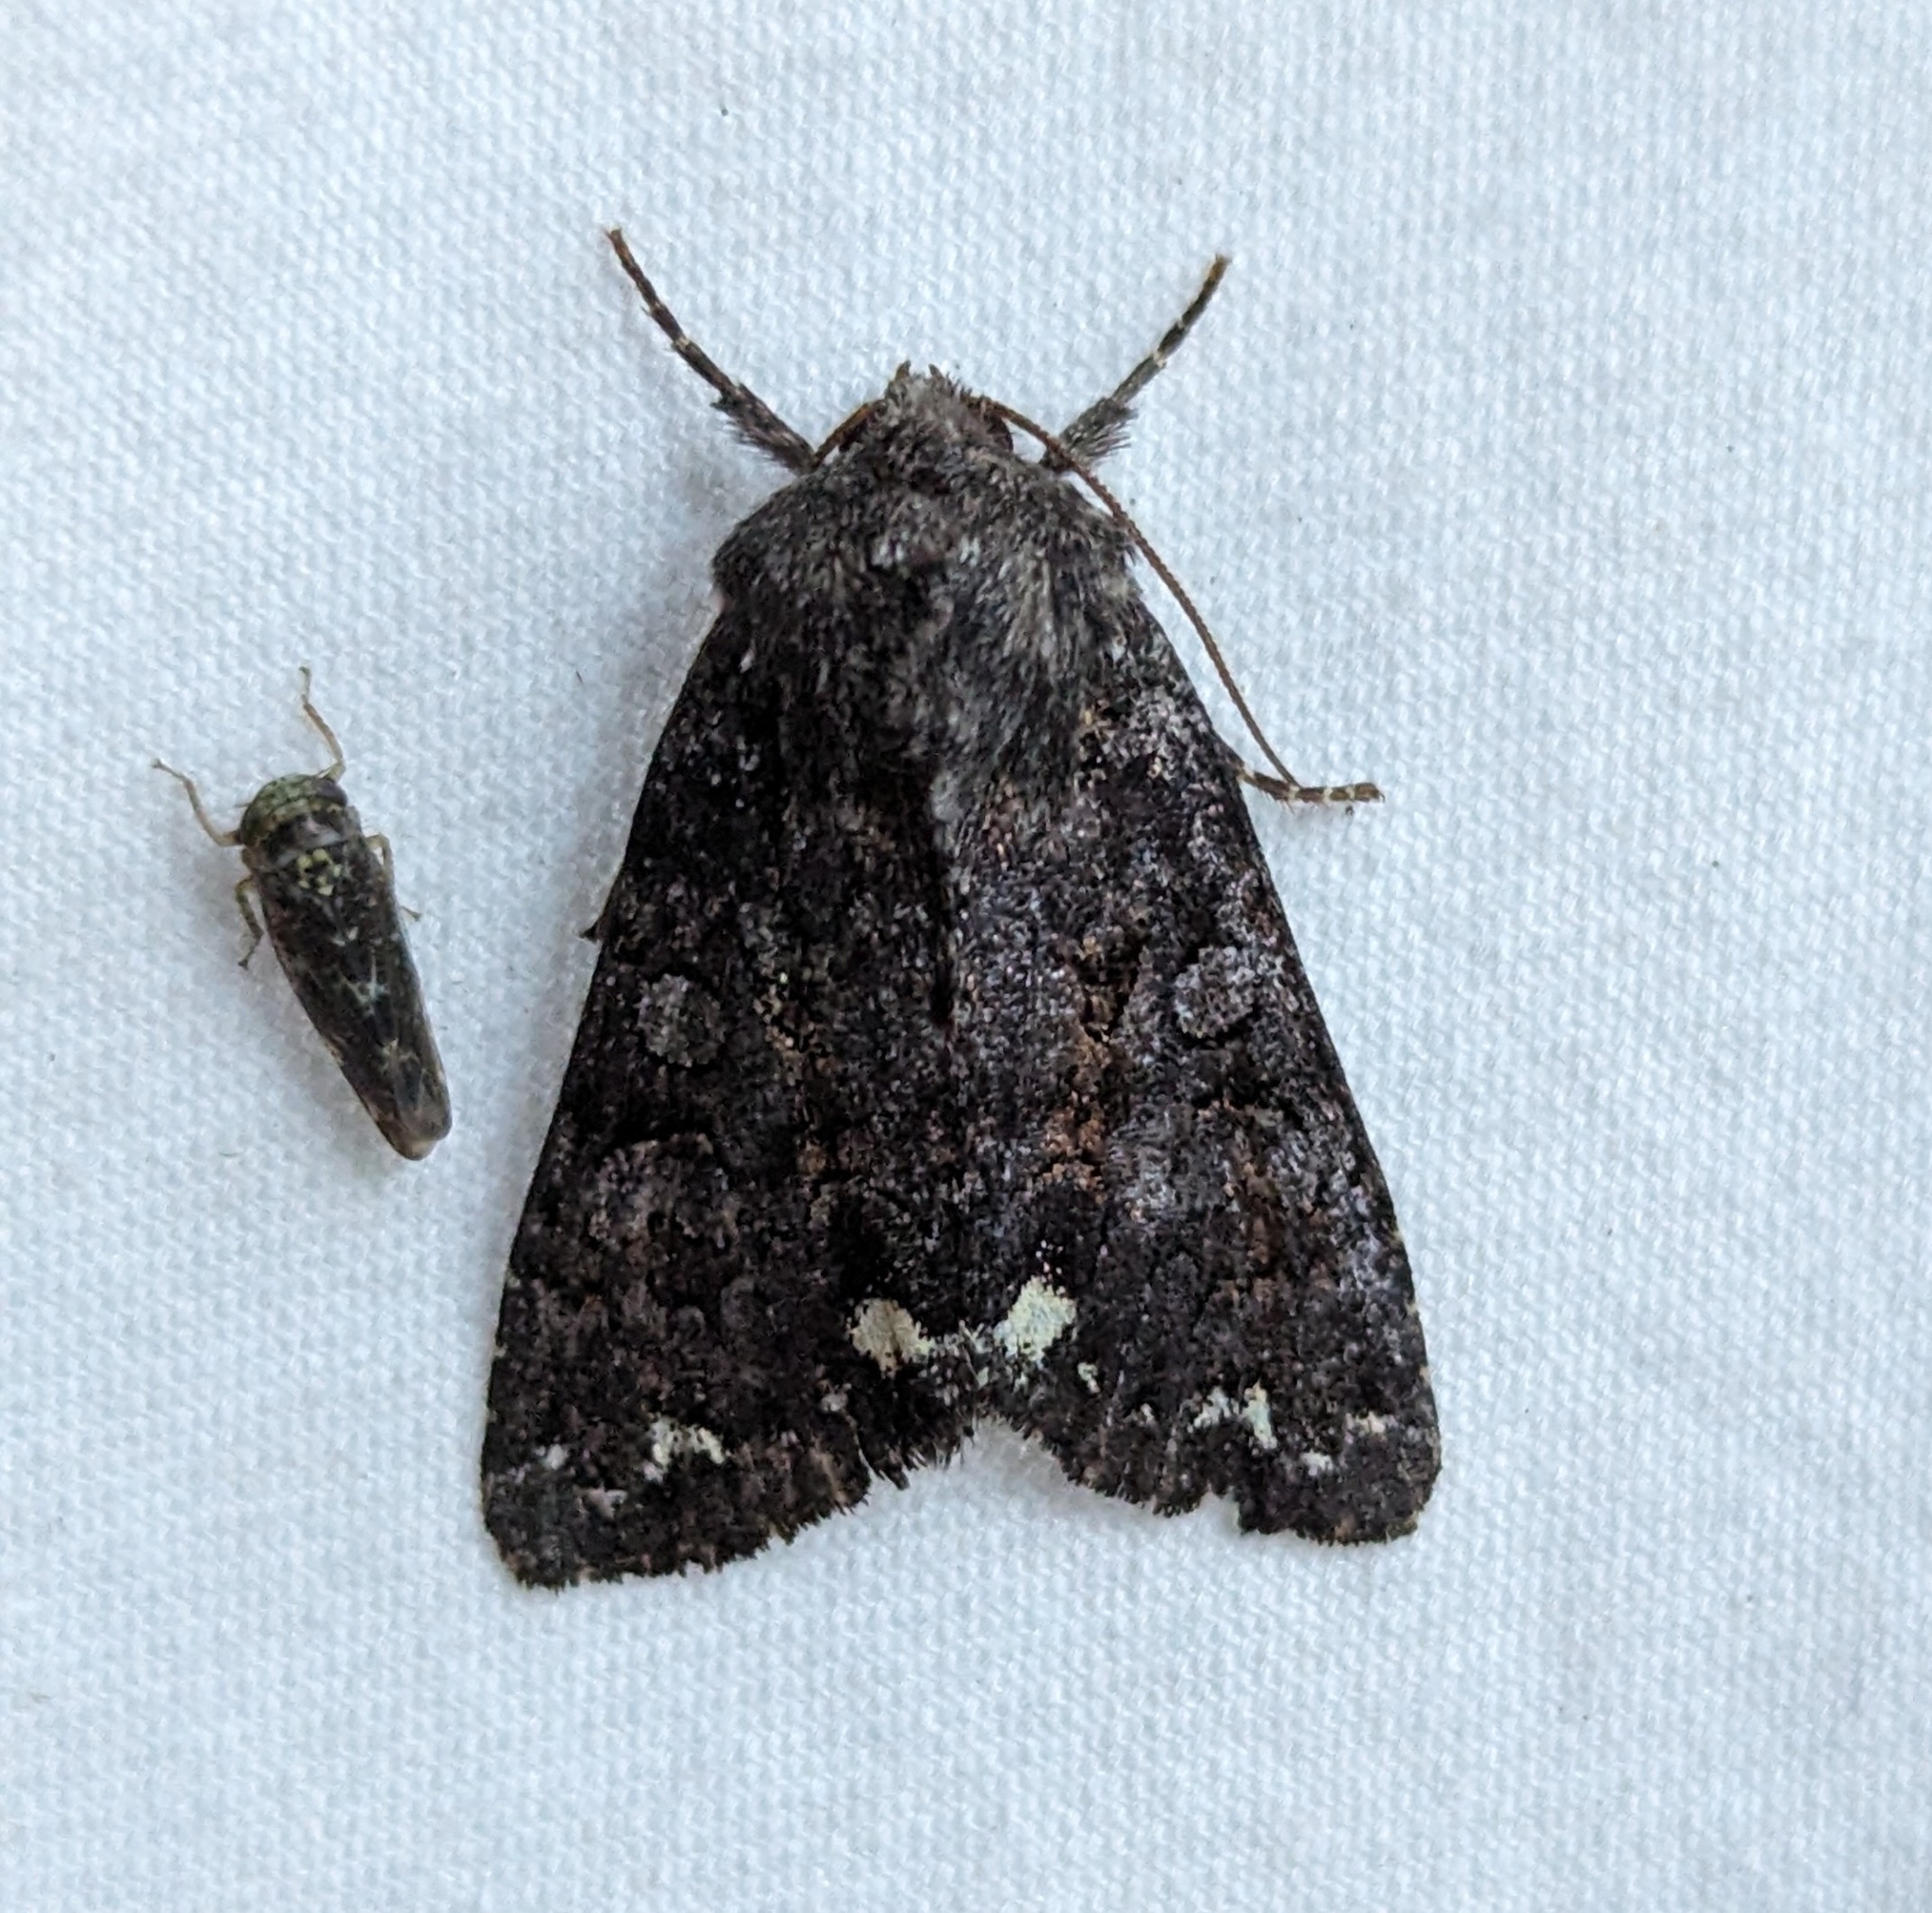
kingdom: Animalia
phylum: Arthropoda
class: Insecta
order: Lepidoptera
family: Noctuidae
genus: Melanchra
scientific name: Melanchra pulverulenta
